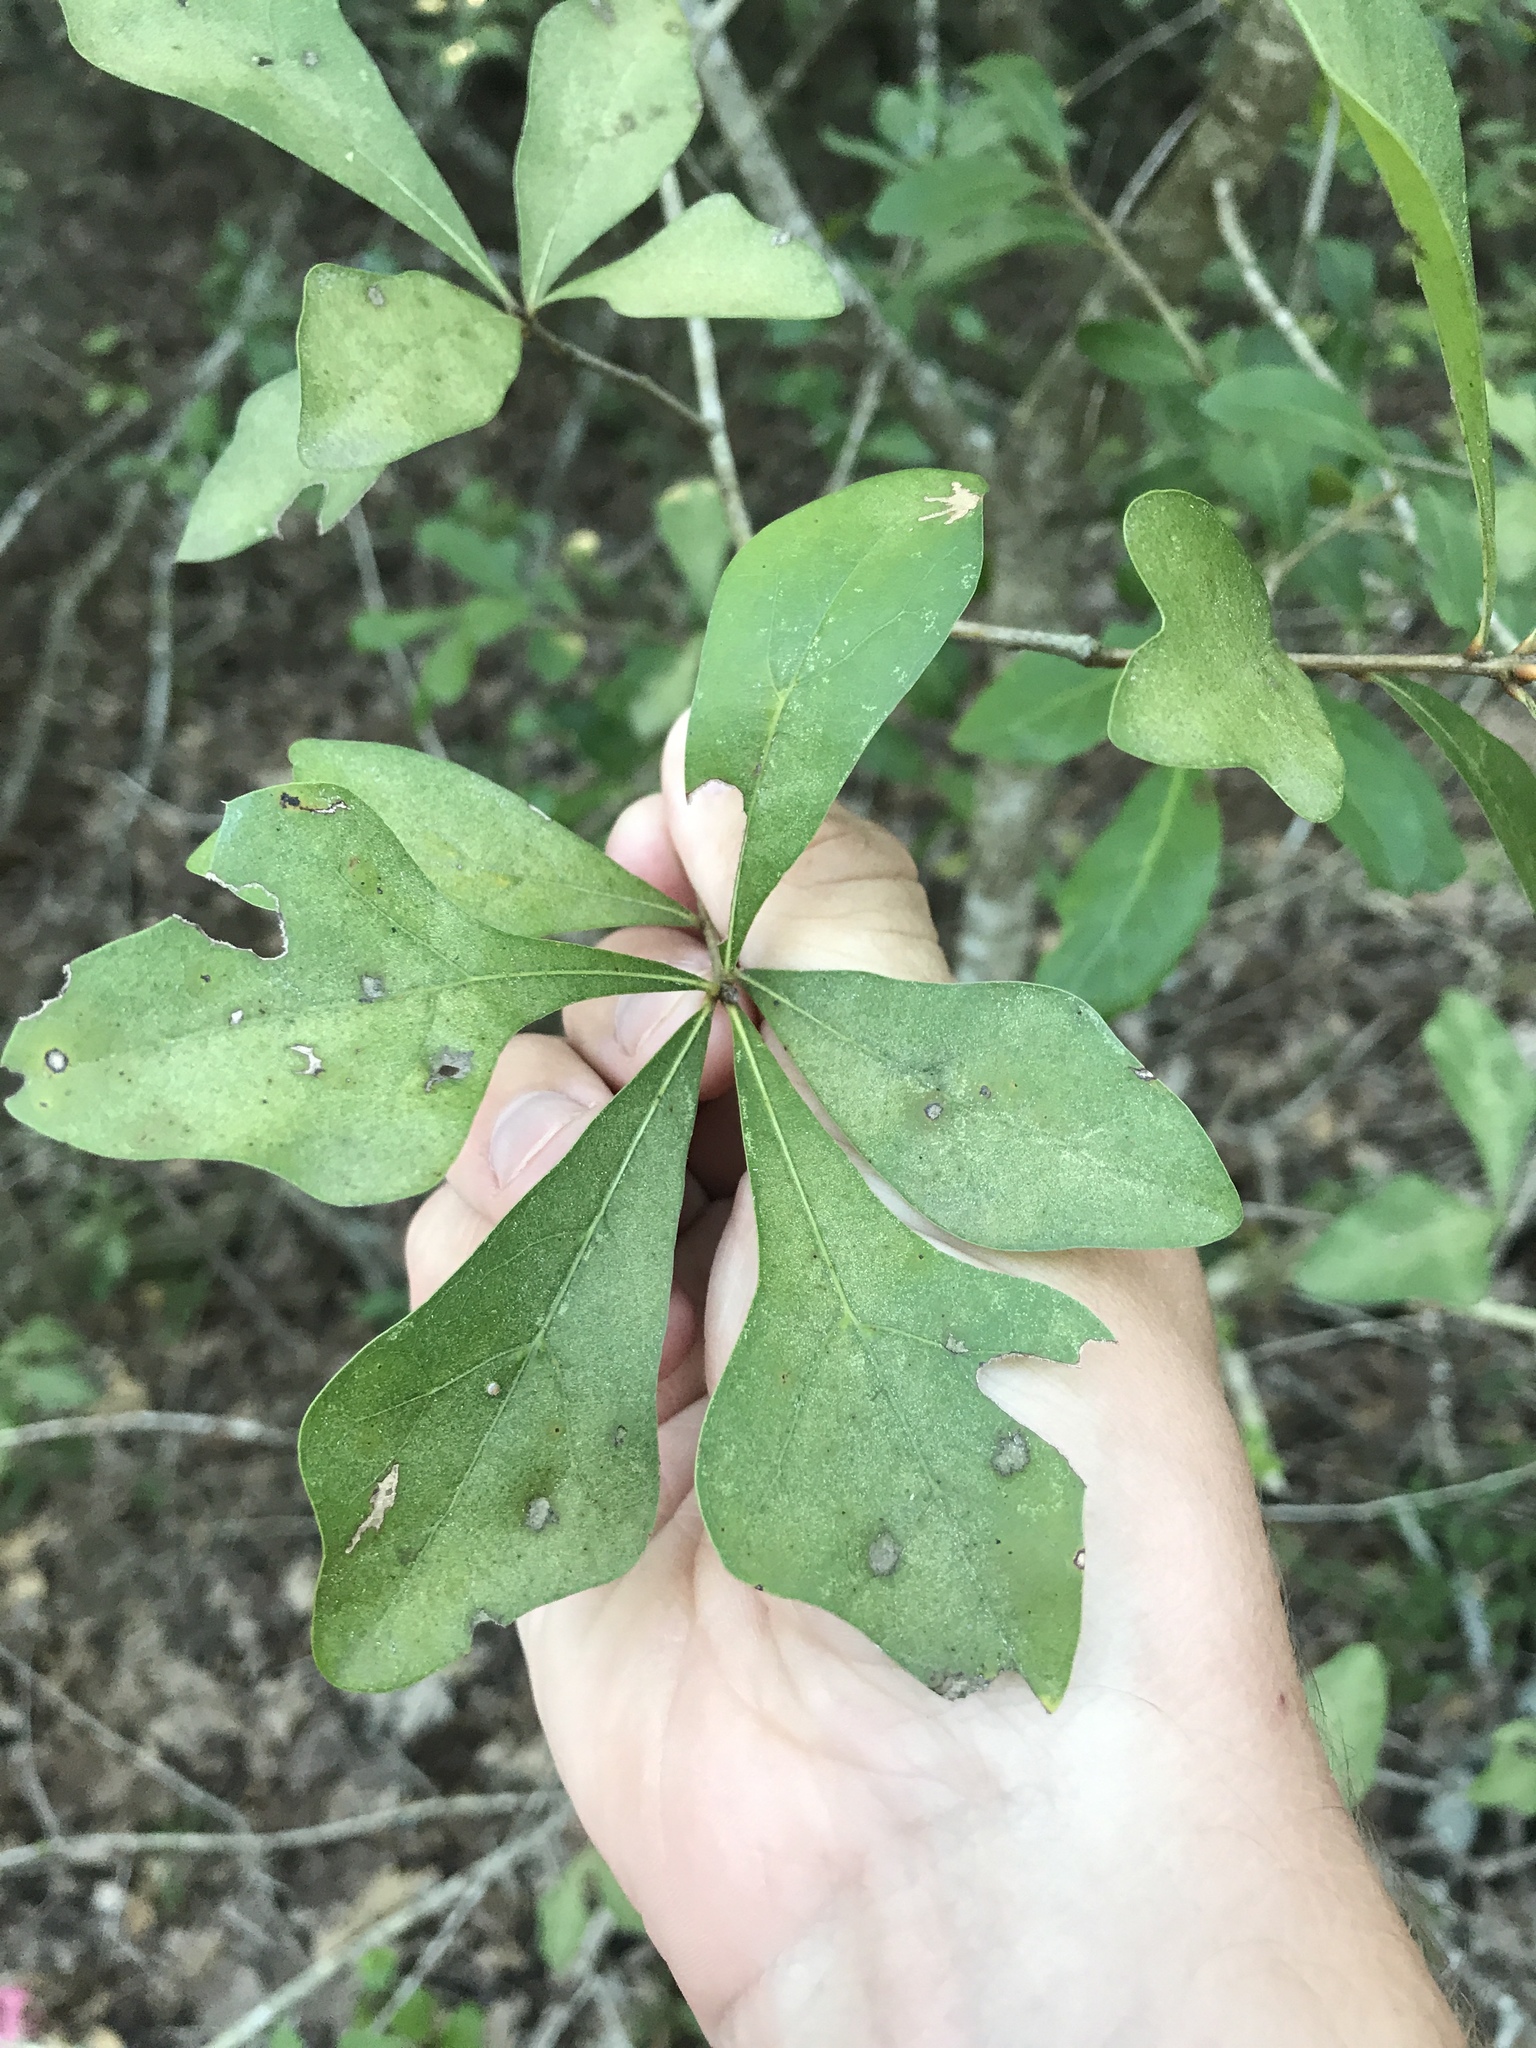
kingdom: Plantae
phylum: Tracheophyta
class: Magnoliopsida
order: Fagales
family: Fagaceae
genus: Quercus
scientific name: Quercus nigra
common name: Water oak
